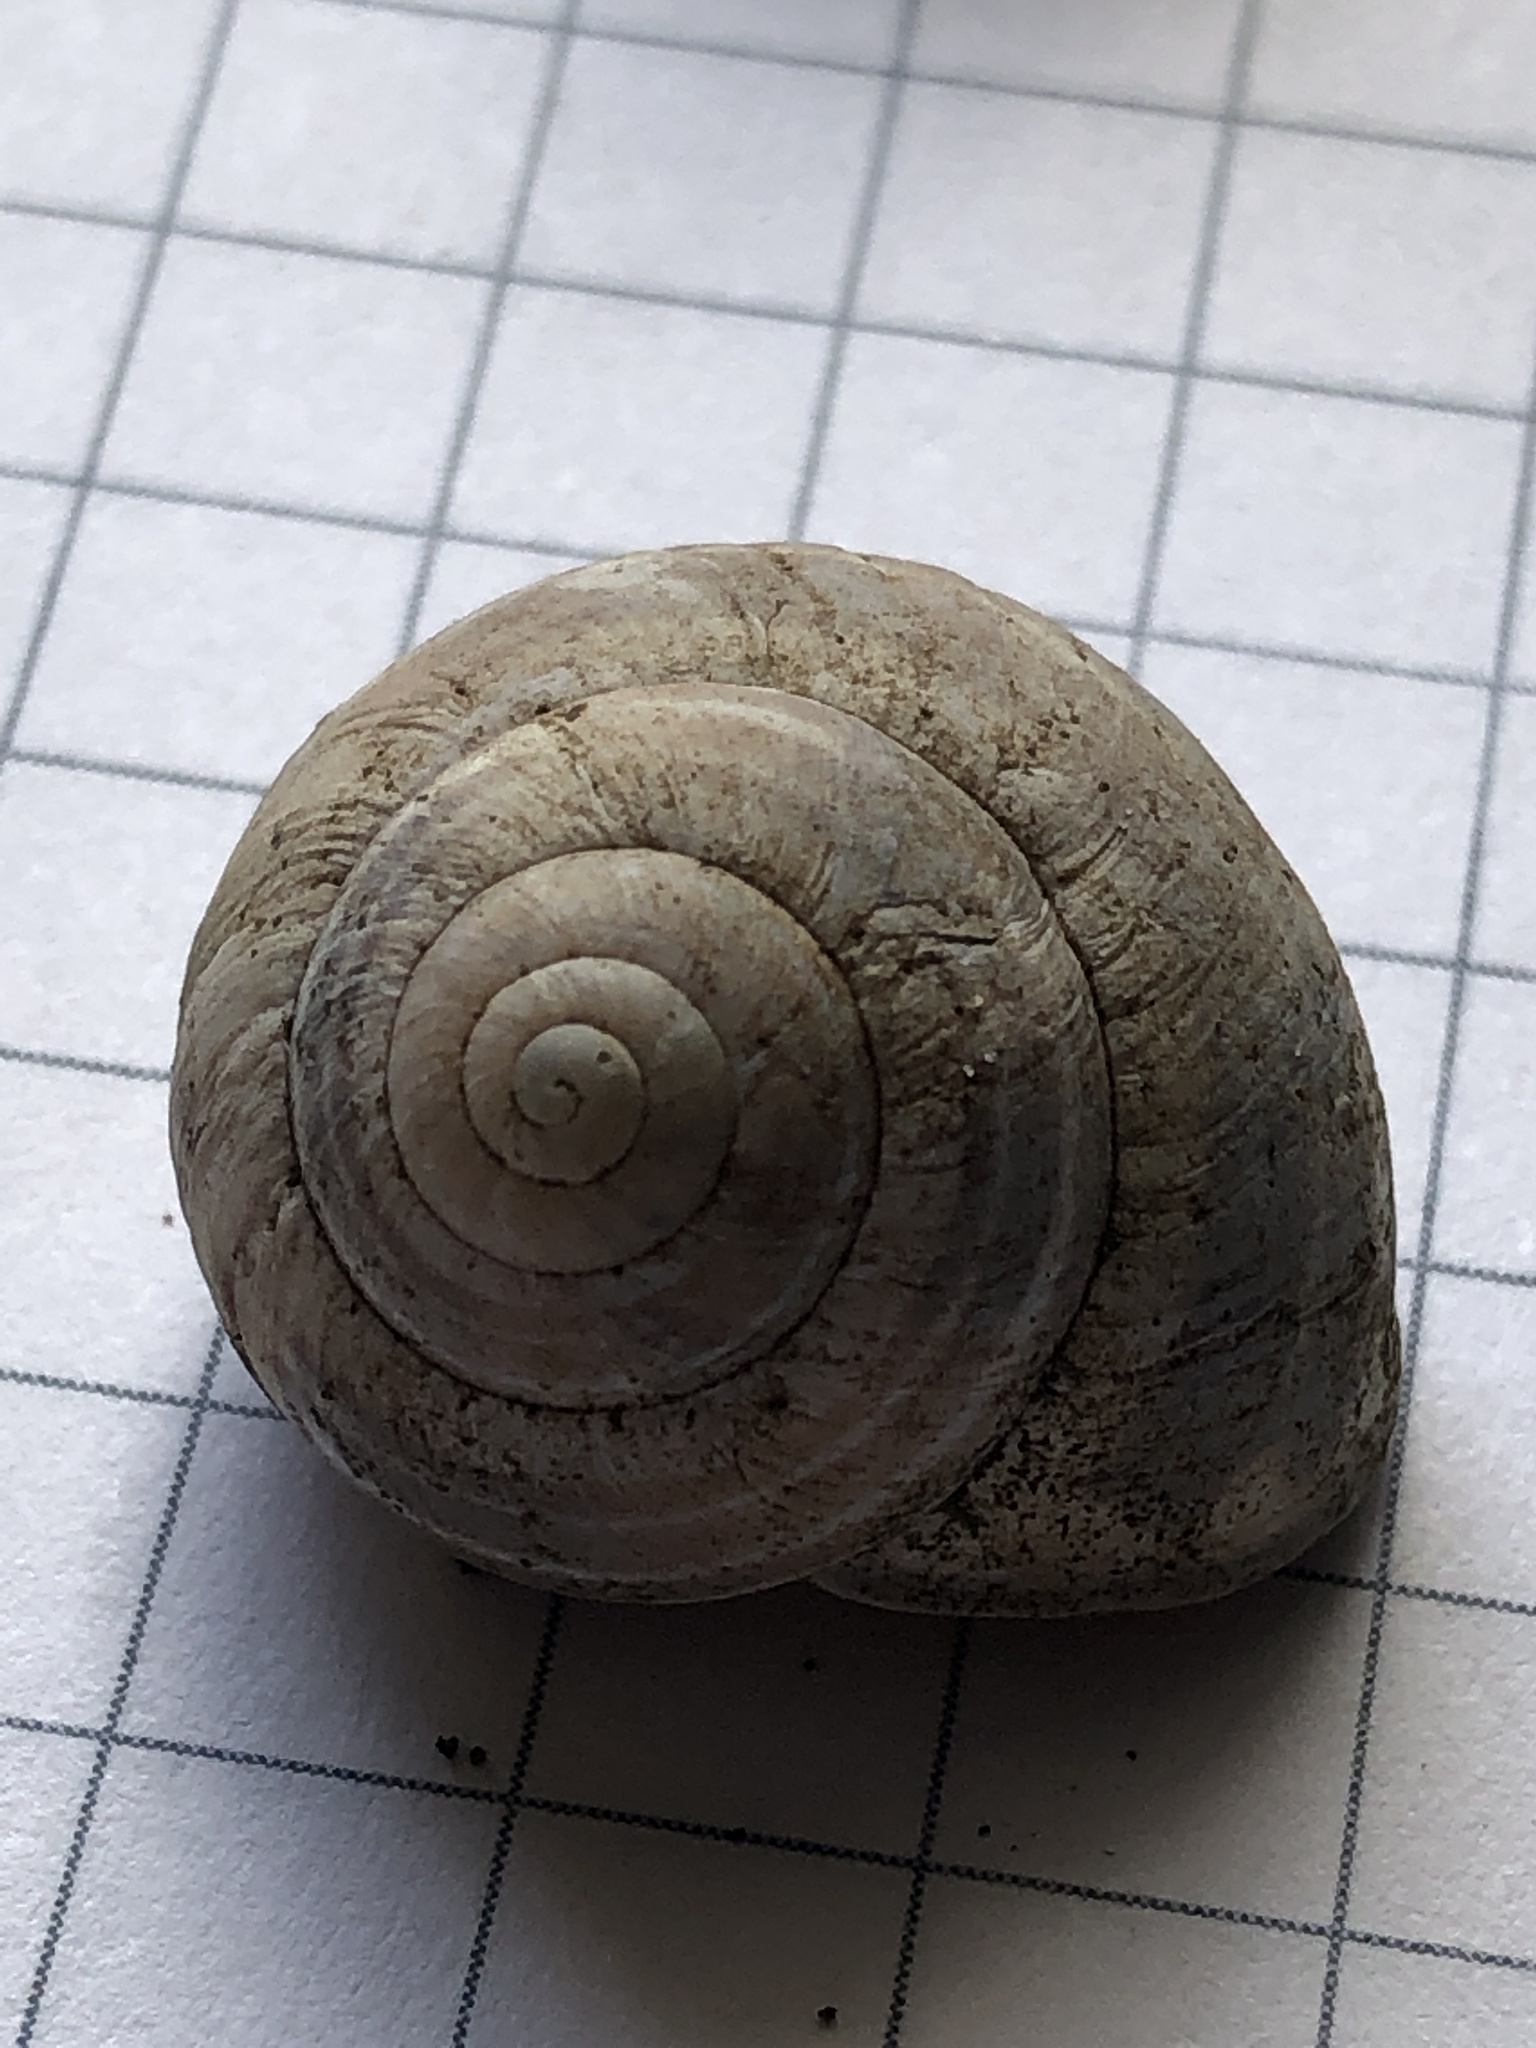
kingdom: Animalia
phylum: Mollusca
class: Gastropoda
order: Stylommatophora
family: Helicidae
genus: Cepaea
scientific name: Cepaea nemoralis
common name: Grovesnail
